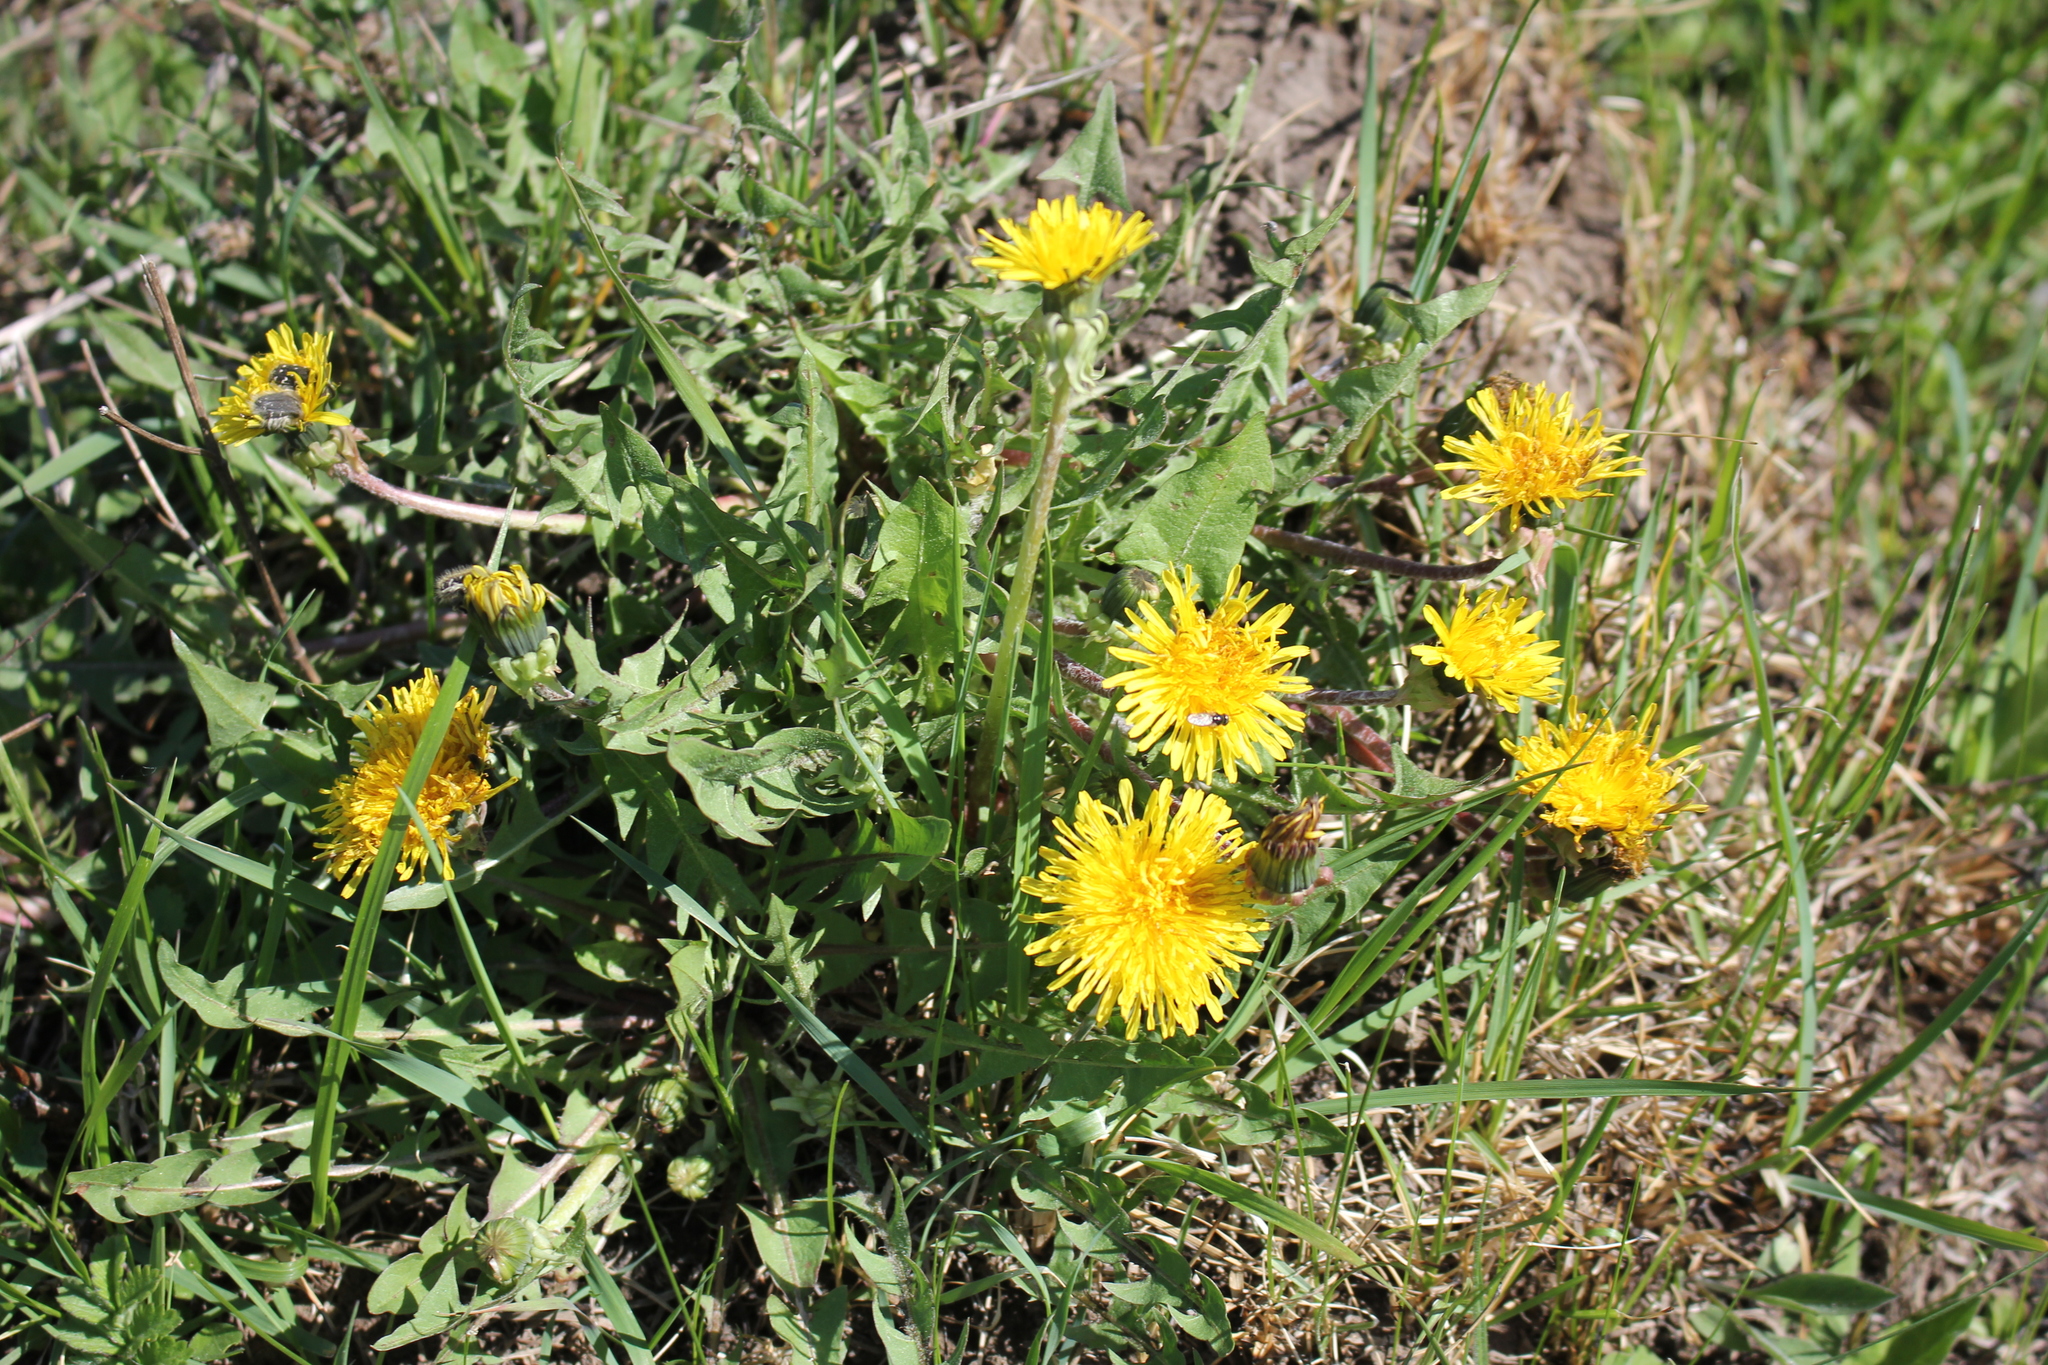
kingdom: Plantae
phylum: Tracheophyta
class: Magnoliopsida
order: Asterales
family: Asteraceae
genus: Taraxacum
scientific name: Taraxacum officinale
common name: Common dandelion
